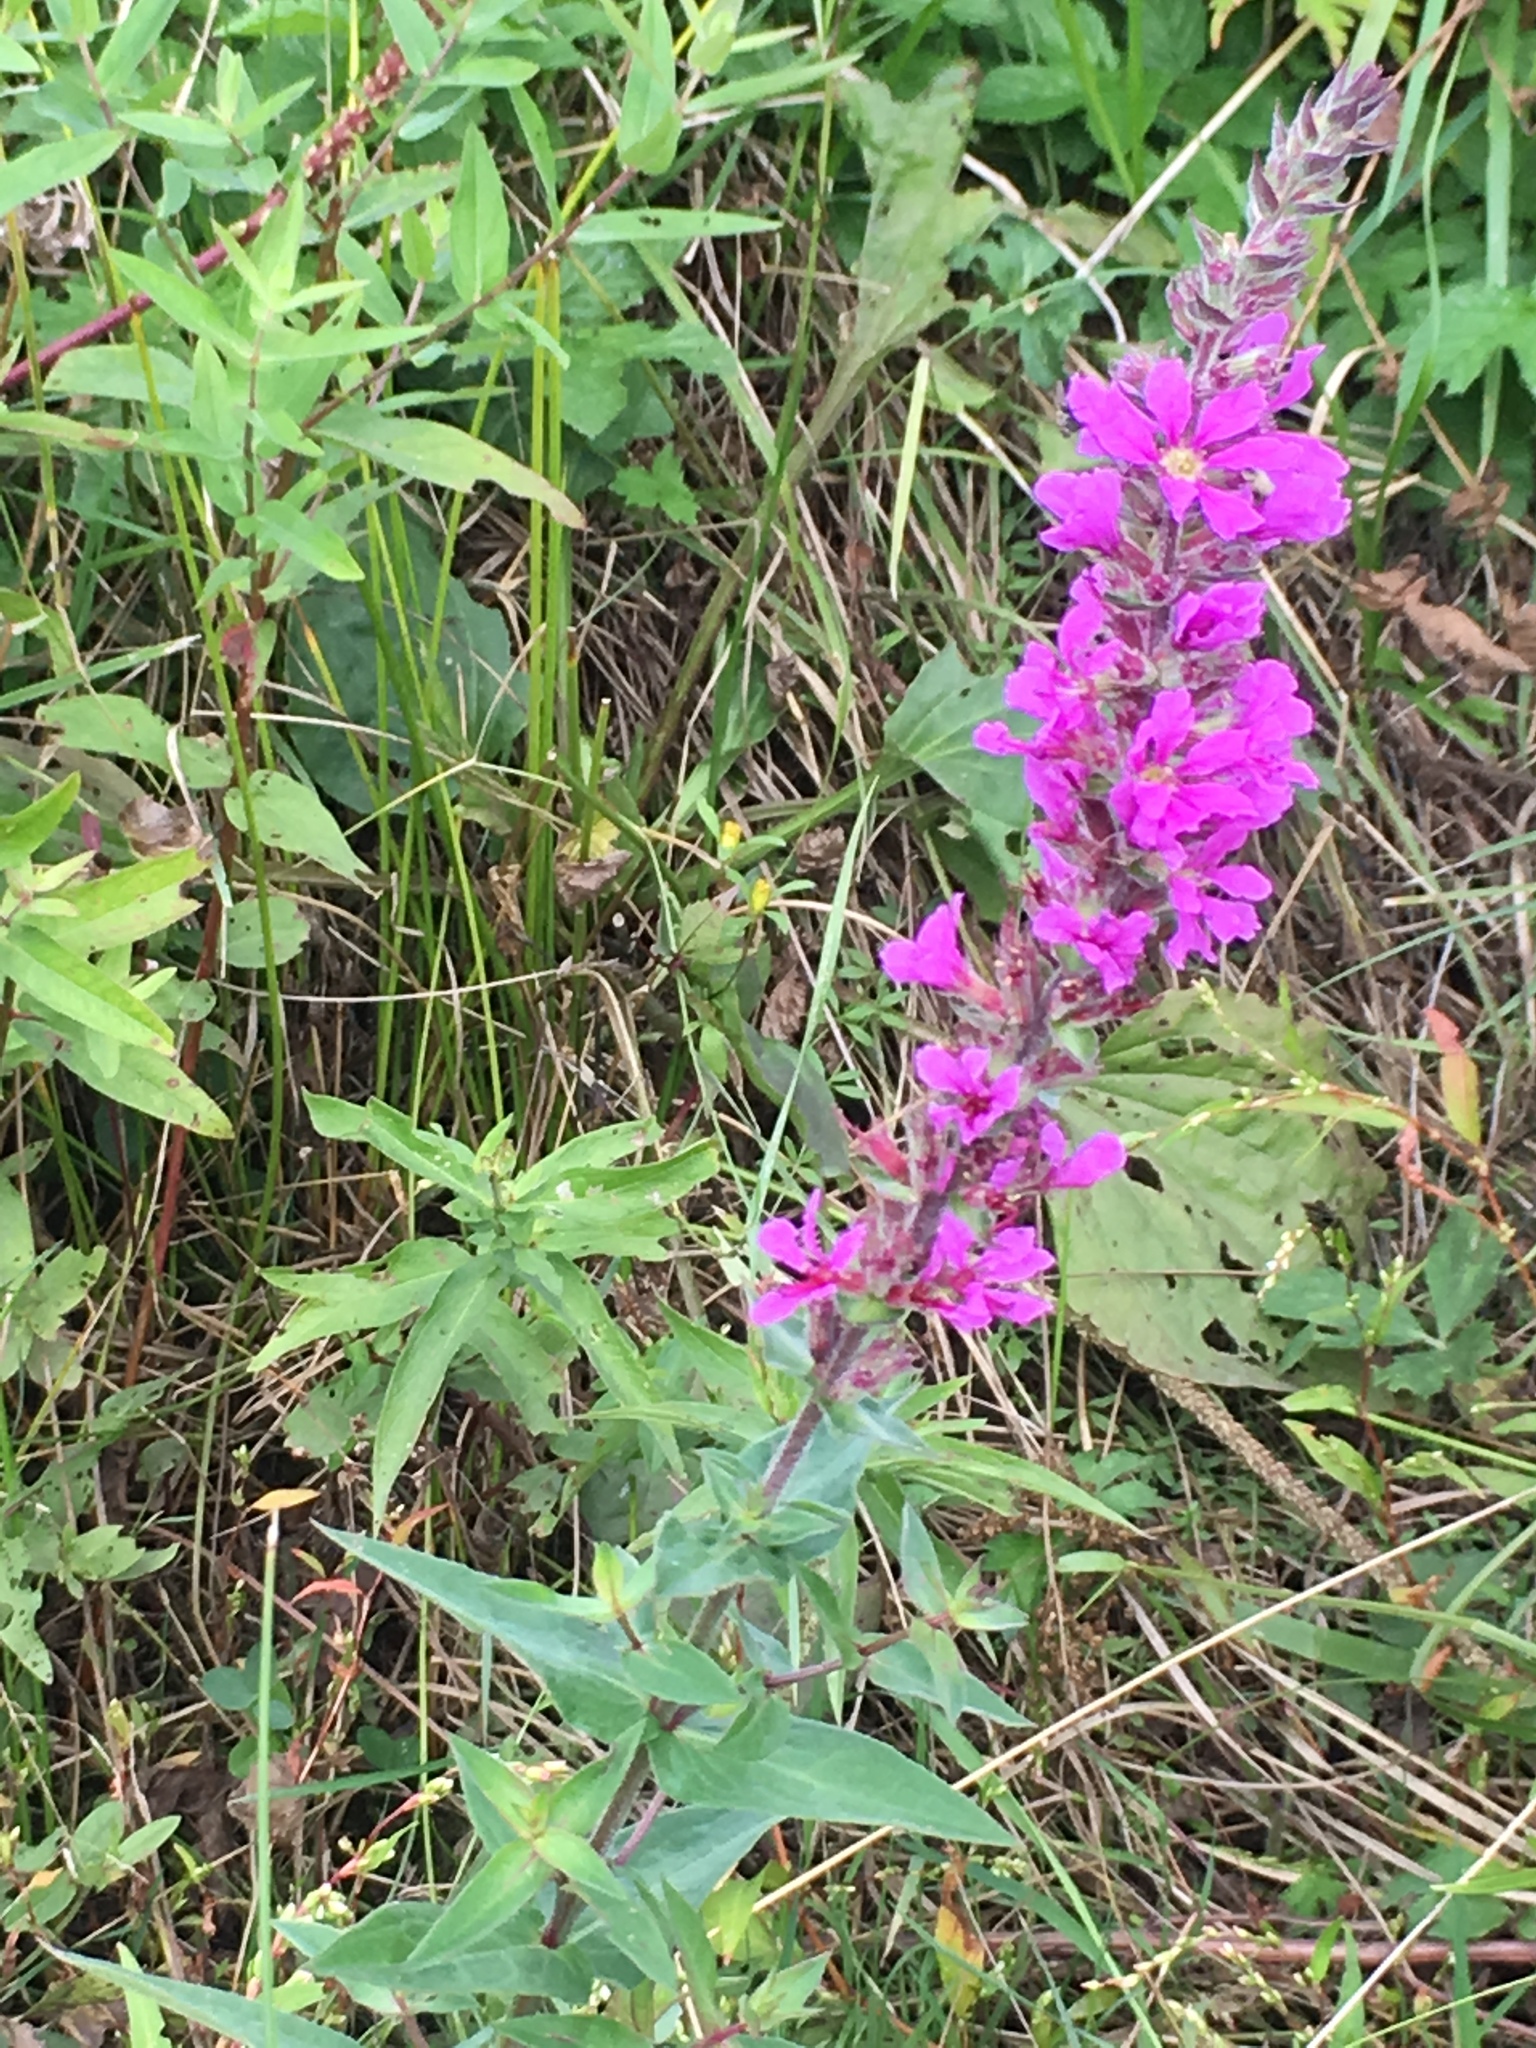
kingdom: Plantae
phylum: Tracheophyta
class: Magnoliopsida
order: Myrtales
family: Lythraceae
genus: Lythrum
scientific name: Lythrum salicaria
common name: Purple loosestrife
